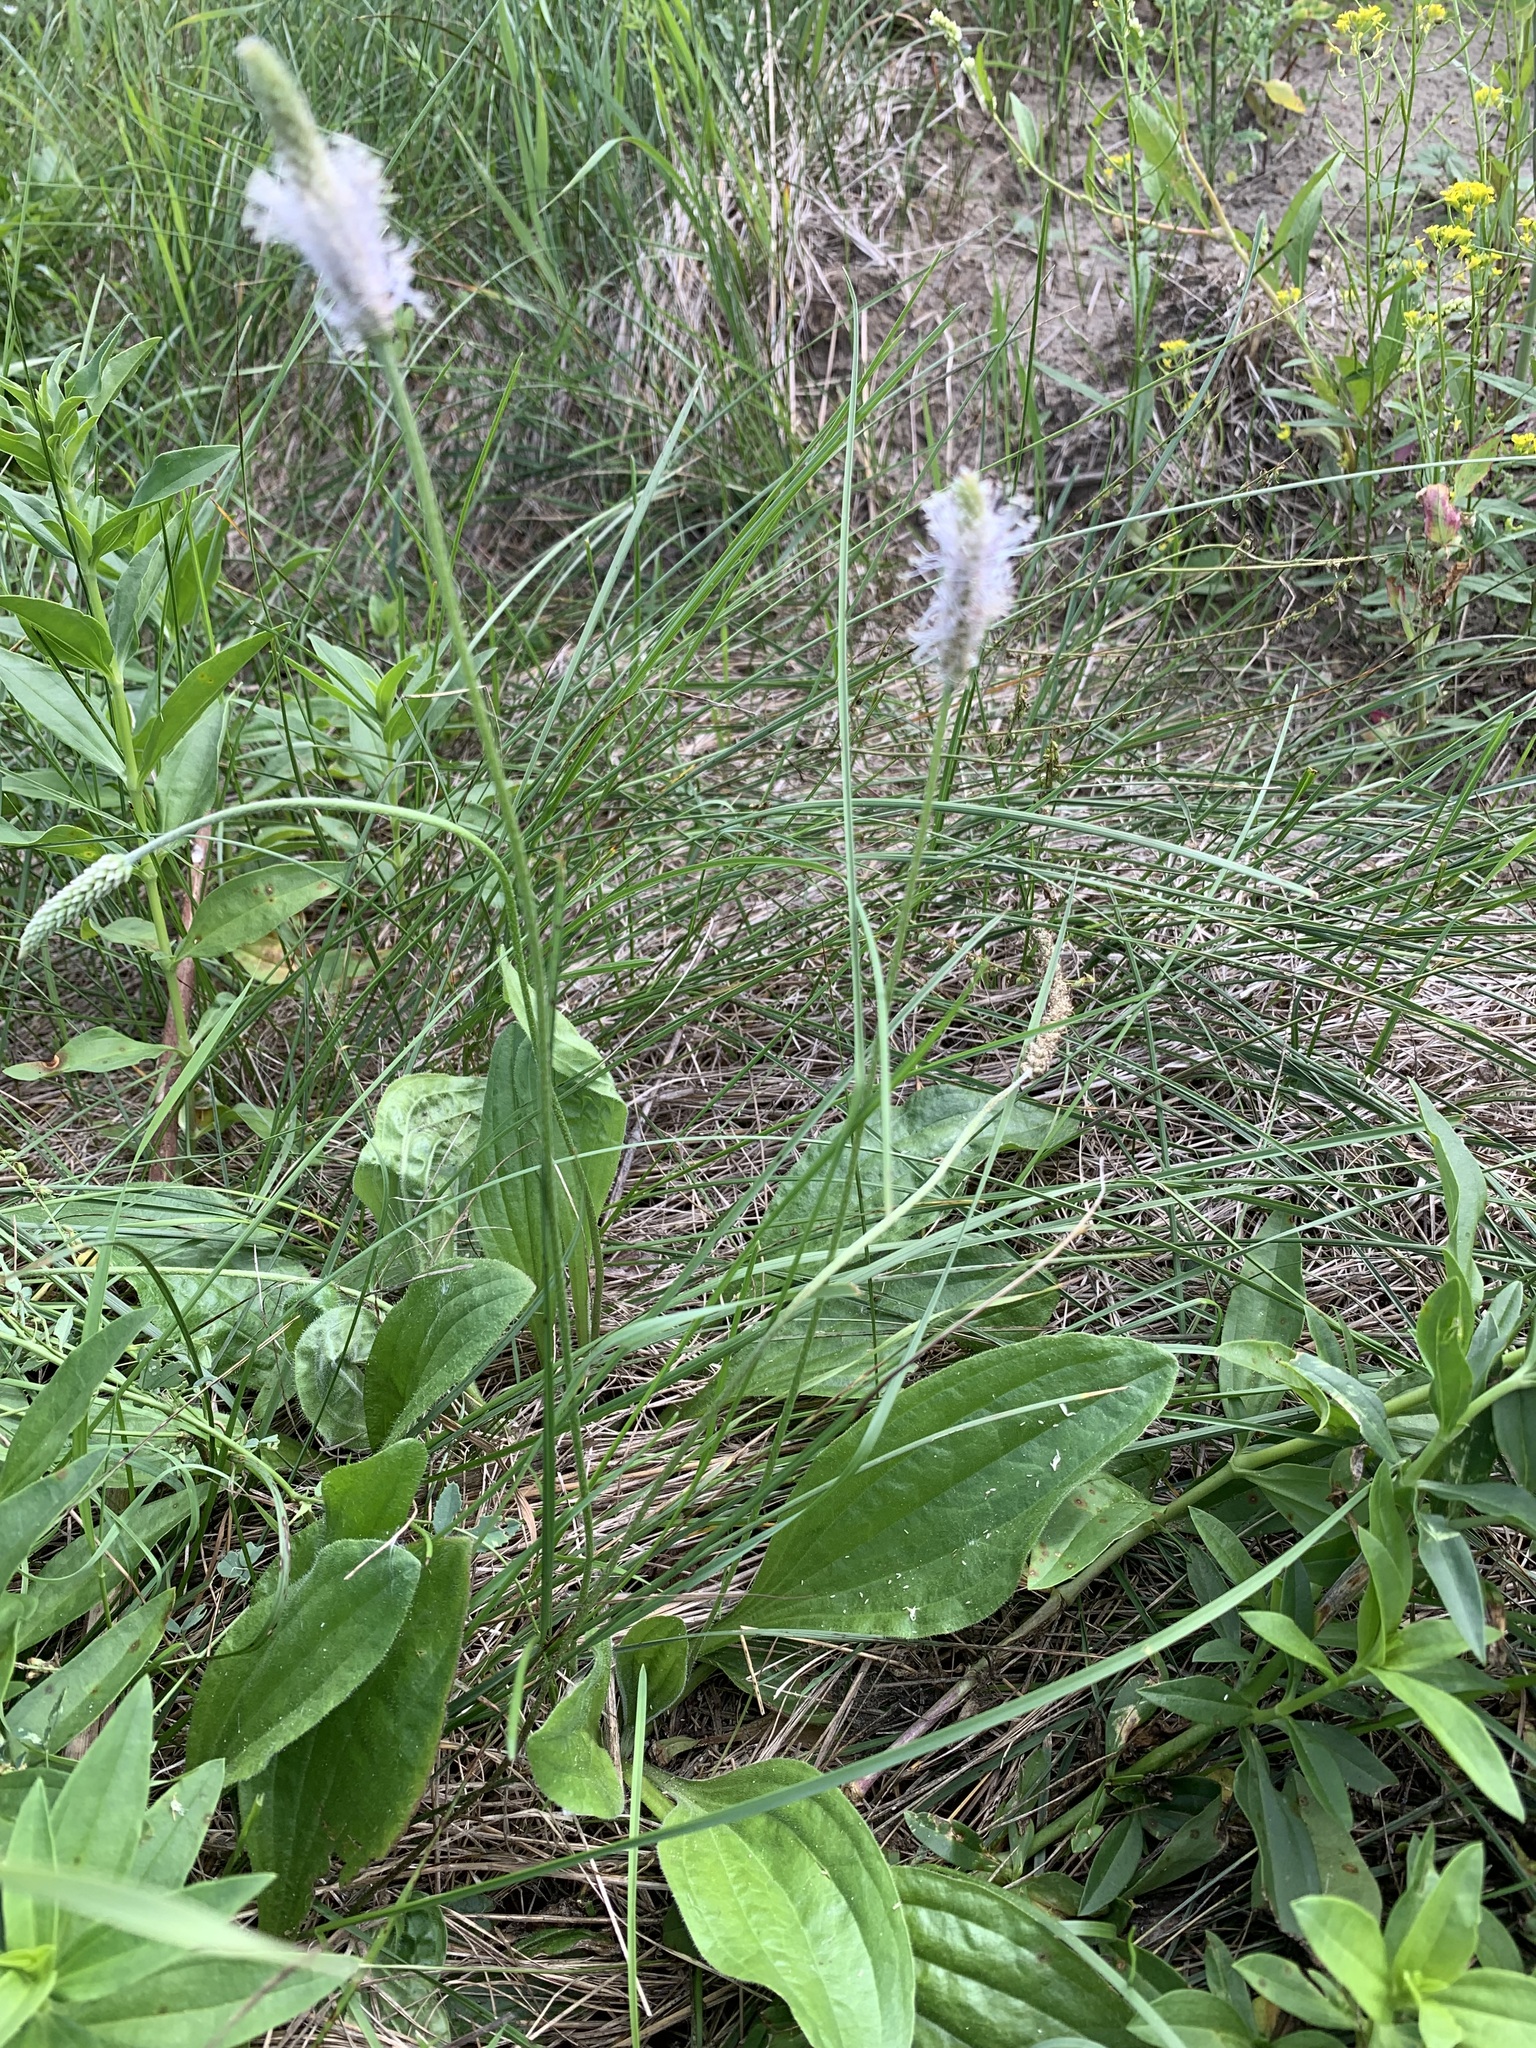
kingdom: Plantae
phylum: Tracheophyta
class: Magnoliopsida
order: Lamiales
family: Plantaginaceae
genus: Plantago
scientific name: Plantago urvillei
